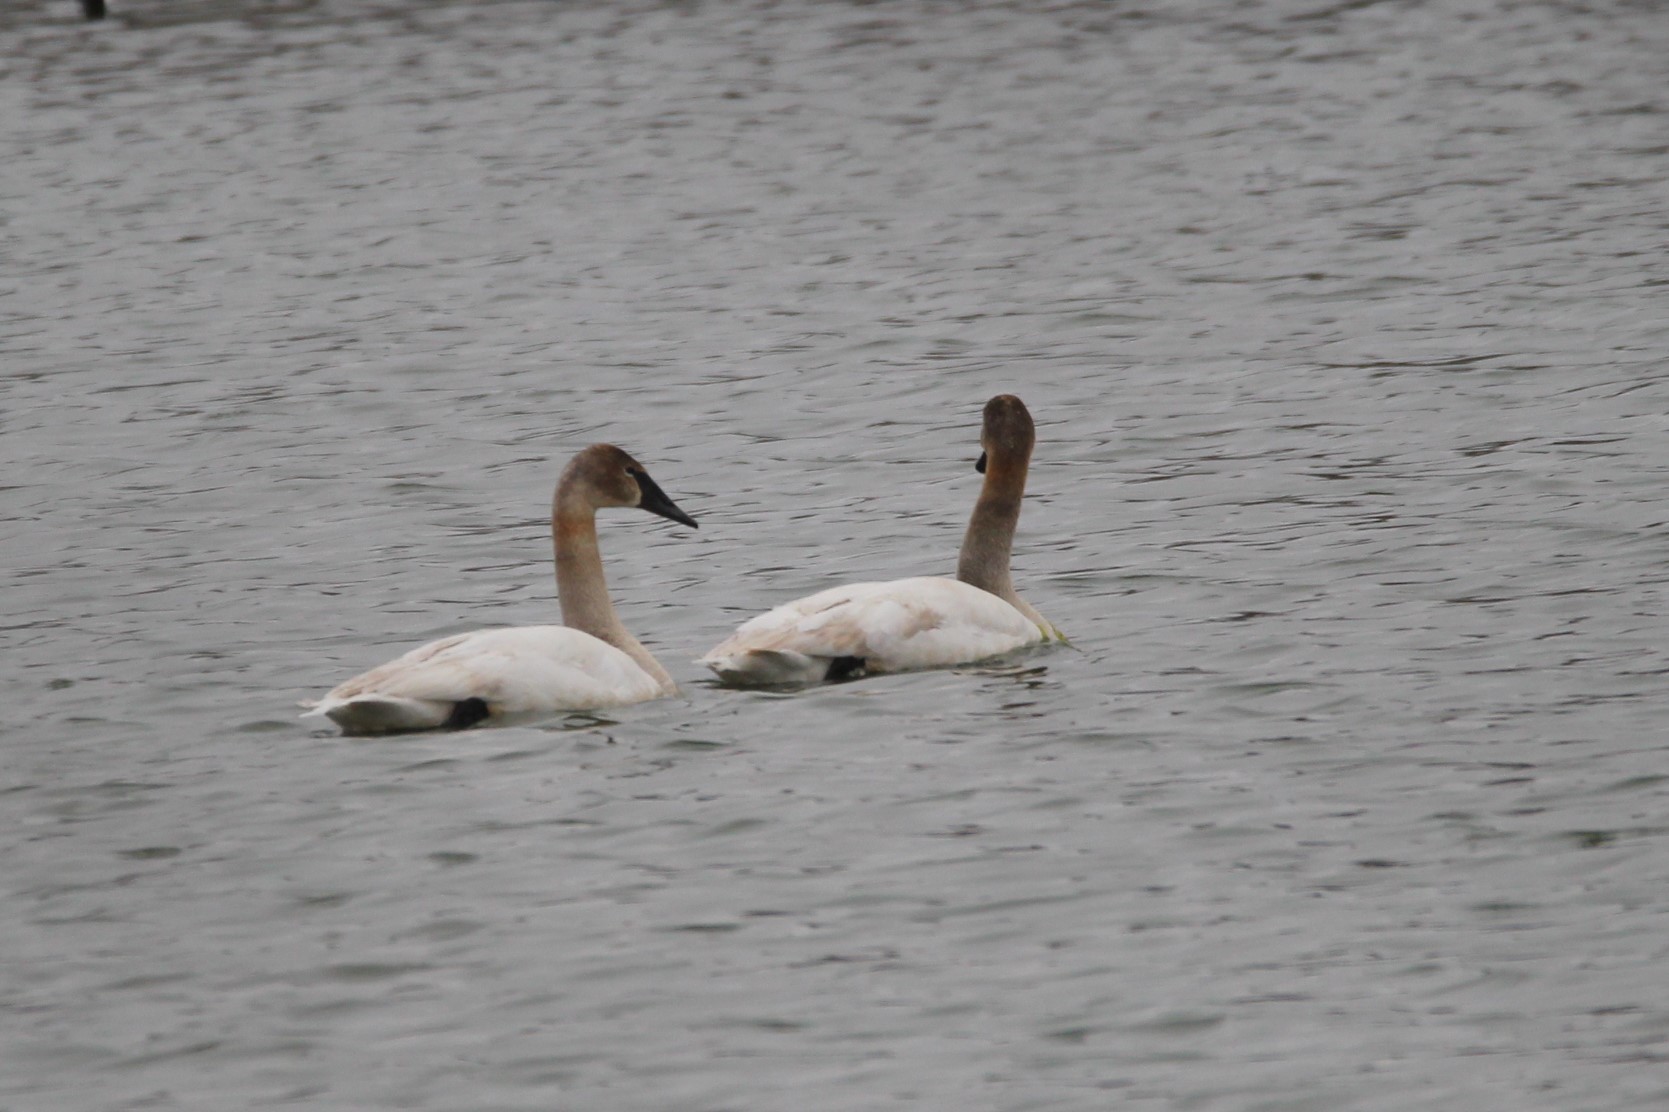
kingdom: Animalia
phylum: Chordata
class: Aves
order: Anseriformes
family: Anatidae
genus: Cygnus
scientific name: Cygnus buccinator
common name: Trumpeter swan
